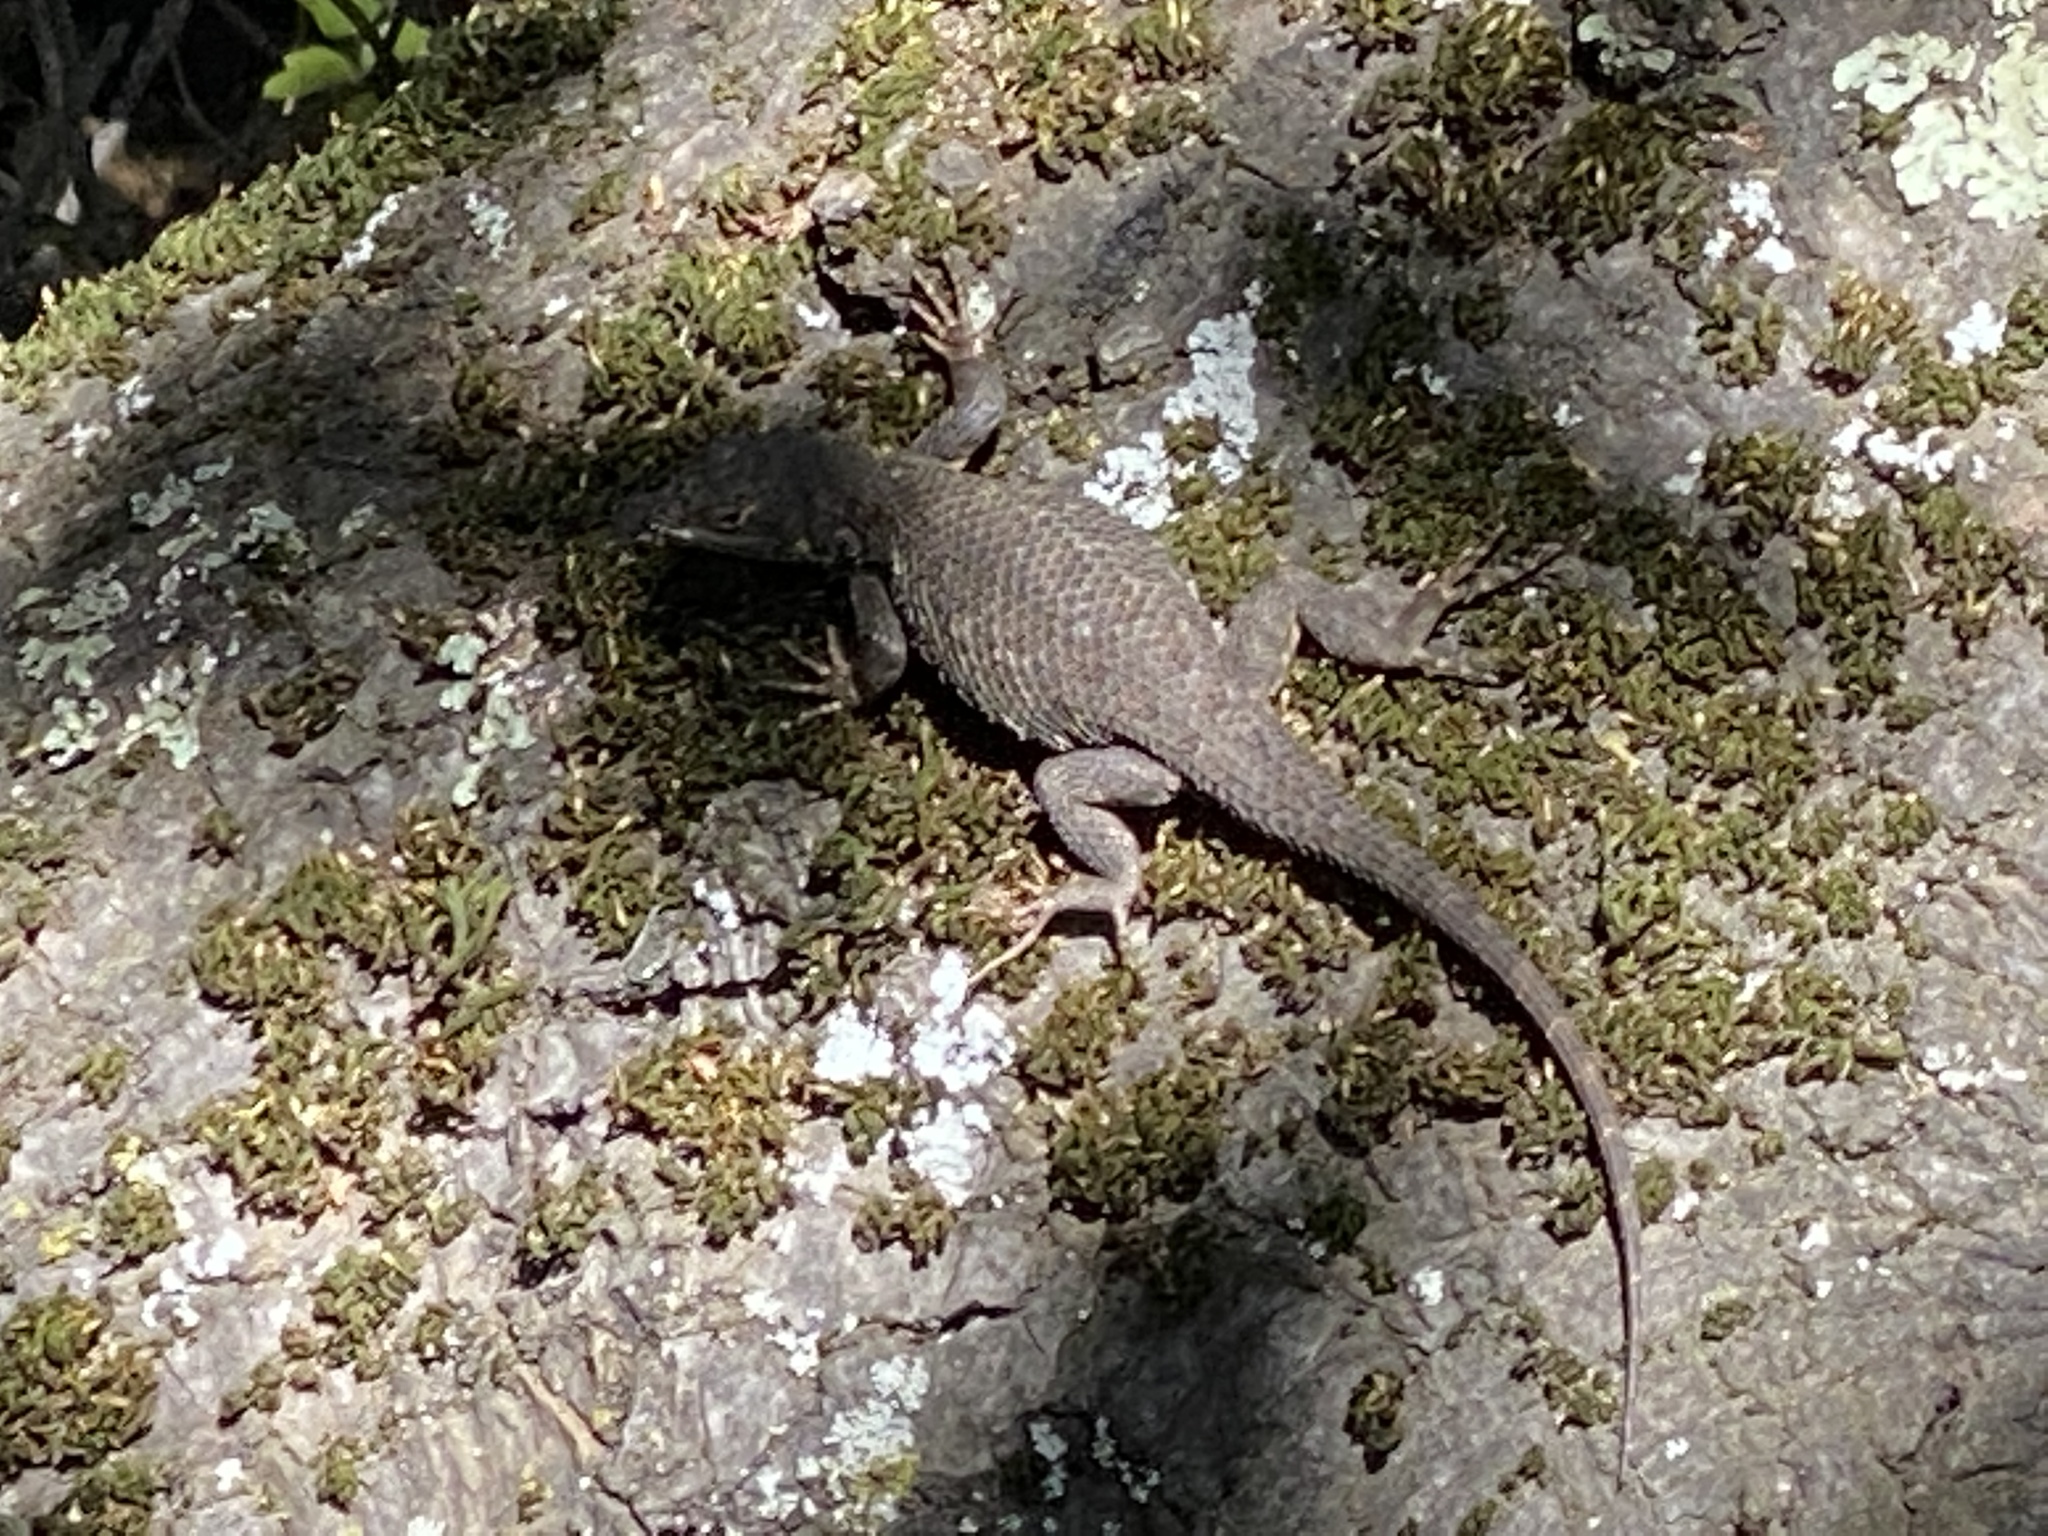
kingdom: Animalia
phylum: Chordata
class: Squamata
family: Phrynosomatidae
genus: Sceloporus
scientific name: Sceloporus occidentalis
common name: Western fence lizard
